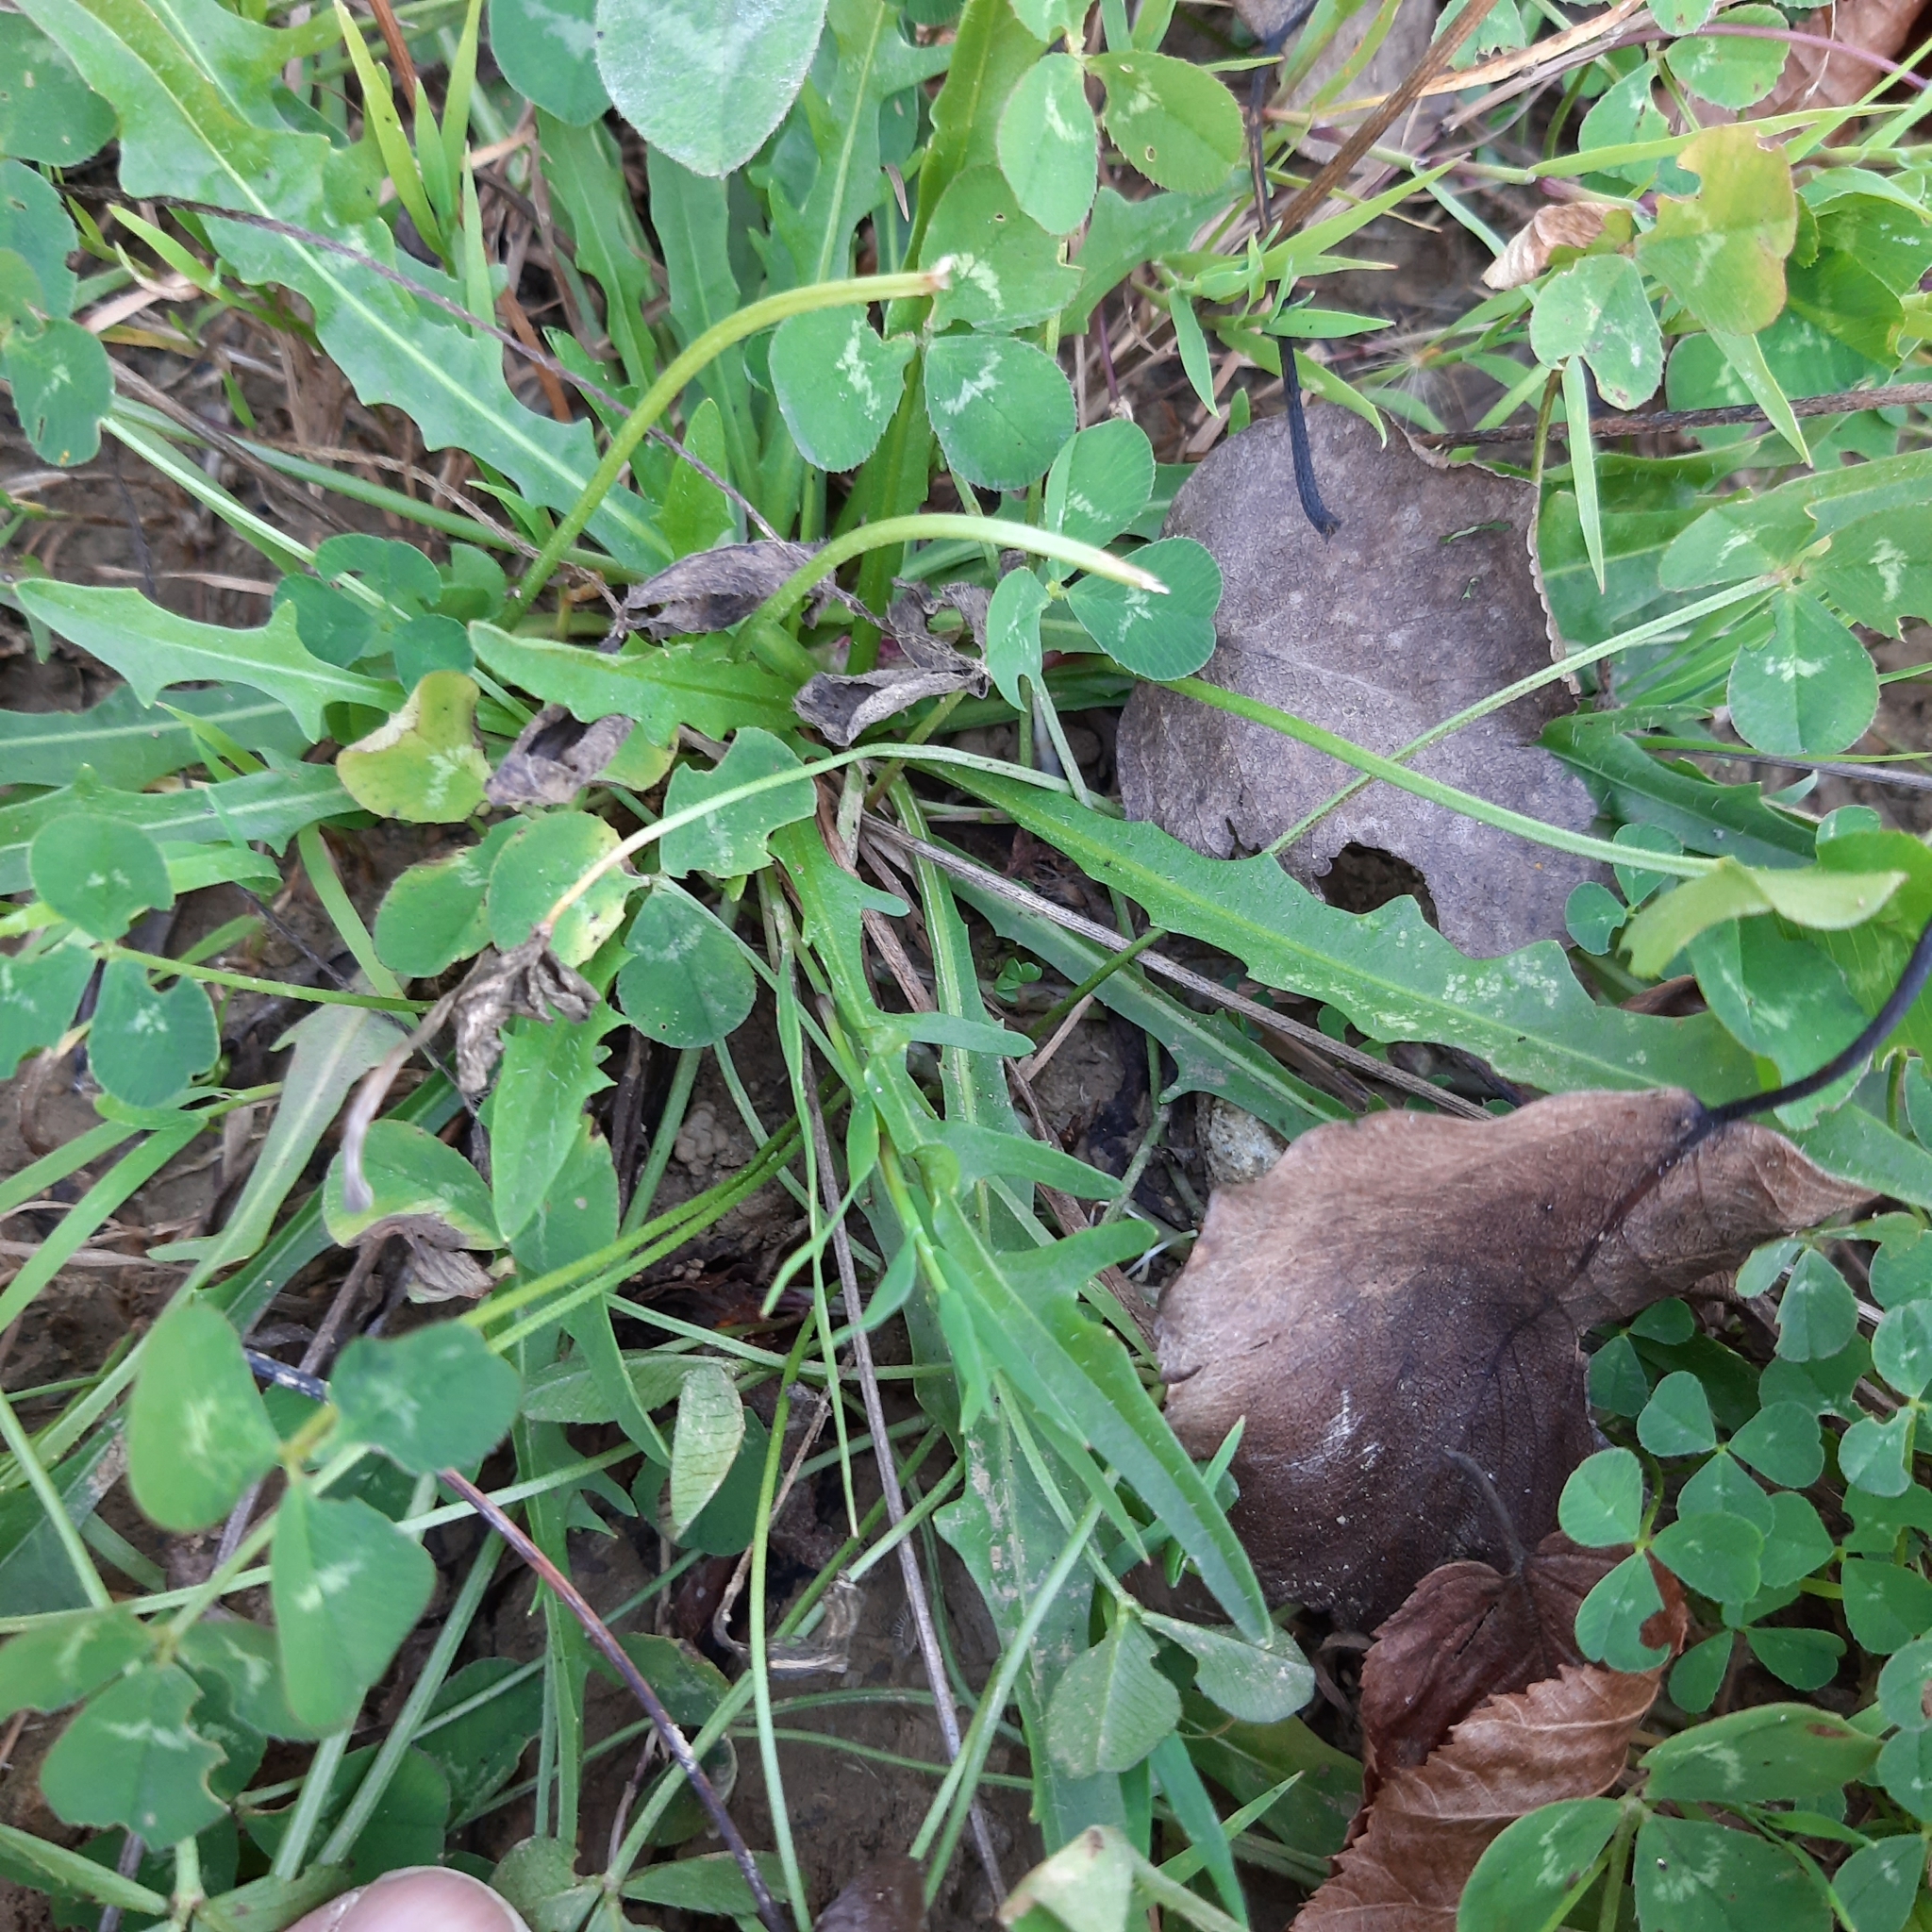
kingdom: Plantae
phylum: Tracheophyta
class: Magnoliopsida
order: Asterales
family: Asteraceae
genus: Scorzoneroides
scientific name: Scorzoneroides autumnalis
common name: Autumn hawkbit
